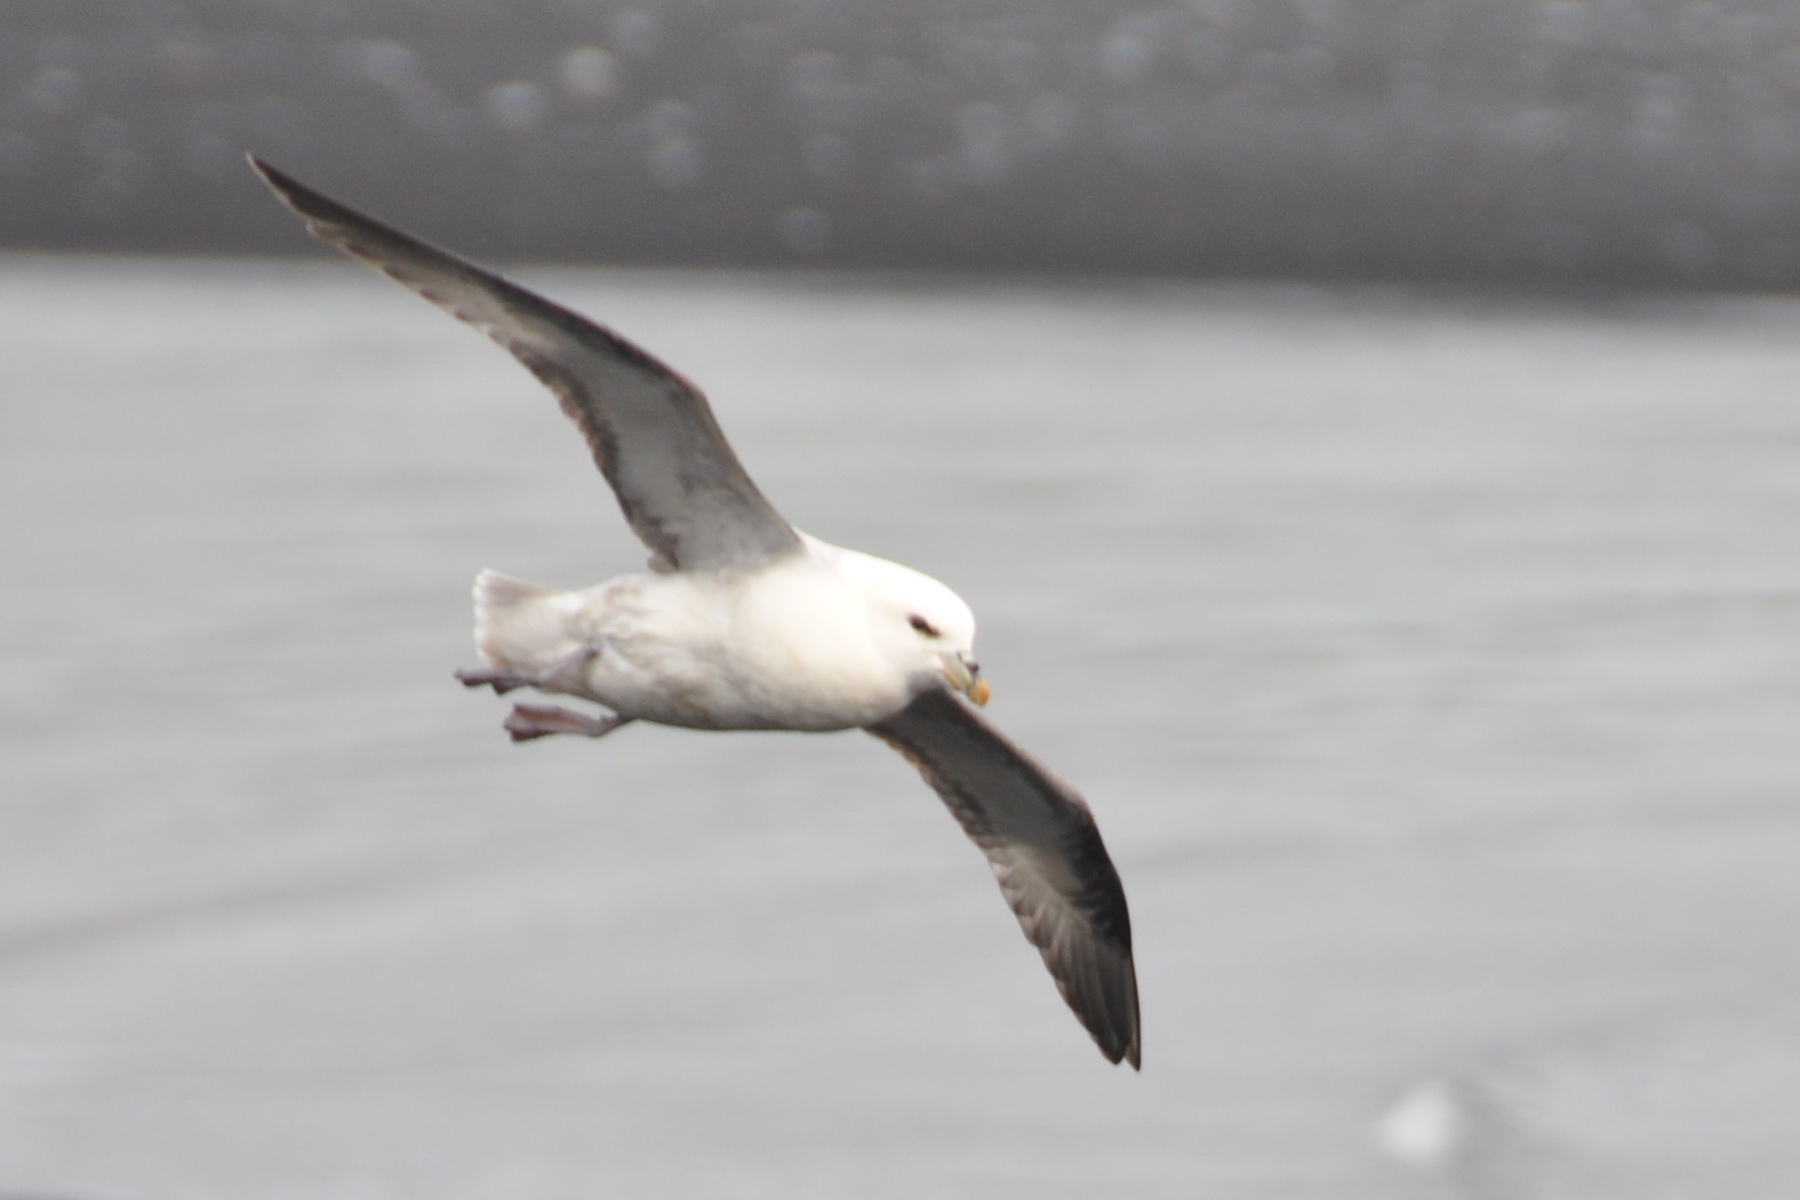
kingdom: Animalia
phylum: Chordata
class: Aves
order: Procellariiformes
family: Procellariidae
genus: Fulmarus
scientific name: Fulmarus glacialis
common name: Northern fulmar
